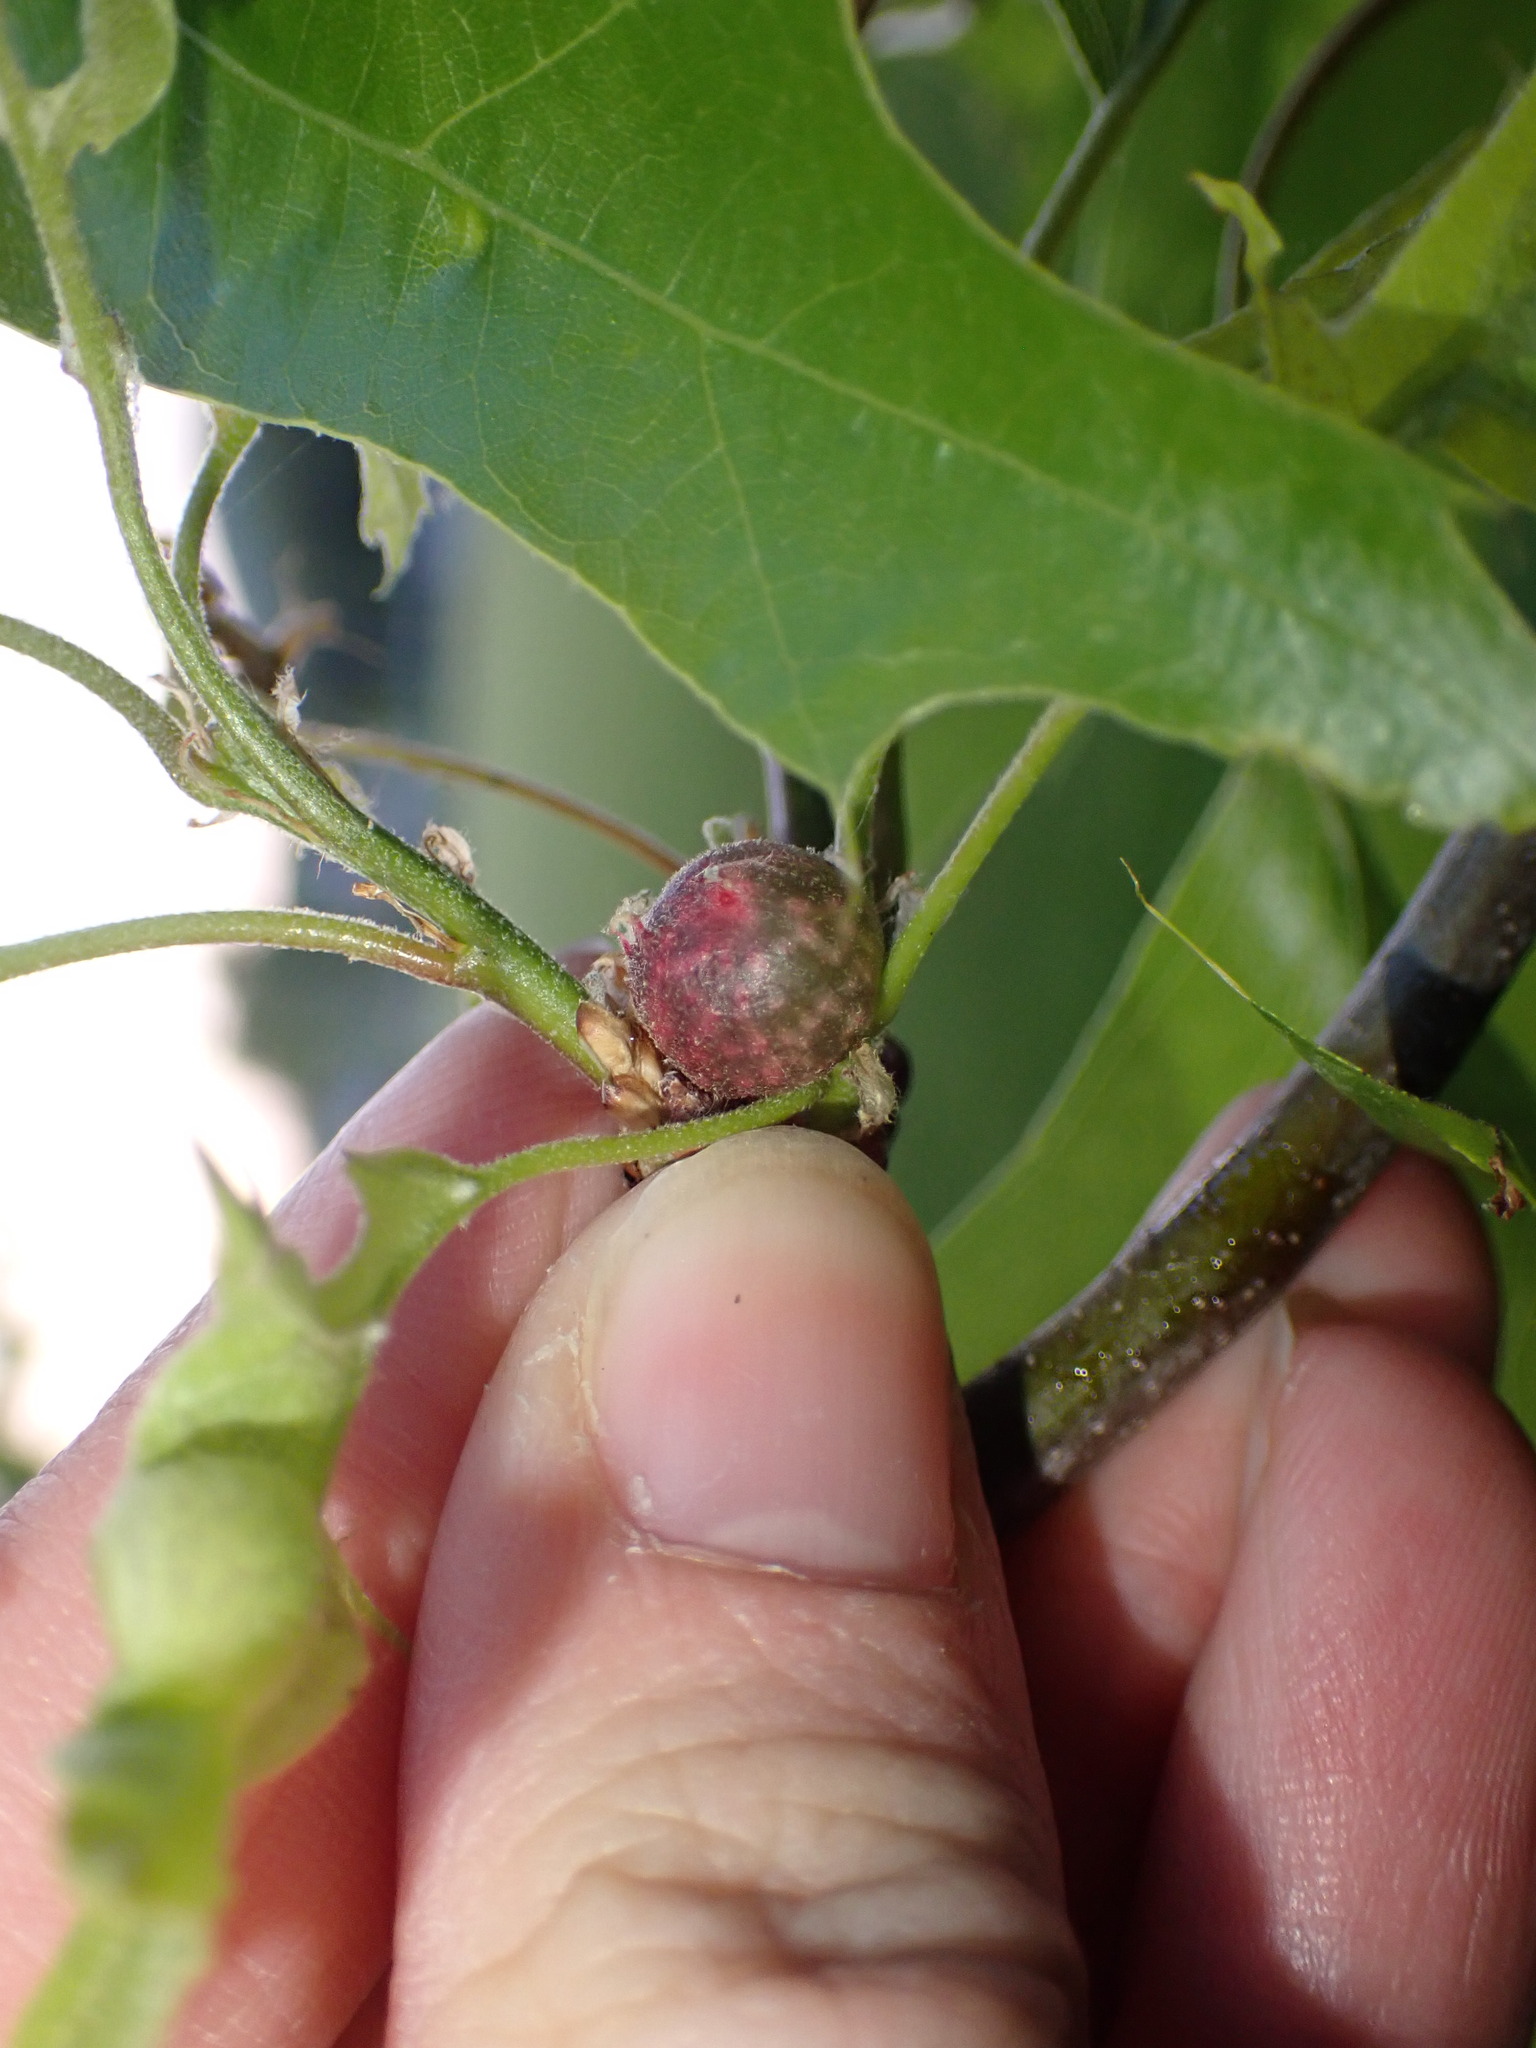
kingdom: Animalia
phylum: Arthropoda
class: Insecta
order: Hymenoptera
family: Cynipidae
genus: Dryocosmus
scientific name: Dryocosmus quercuspalustris
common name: Succulent oak gall wasp
